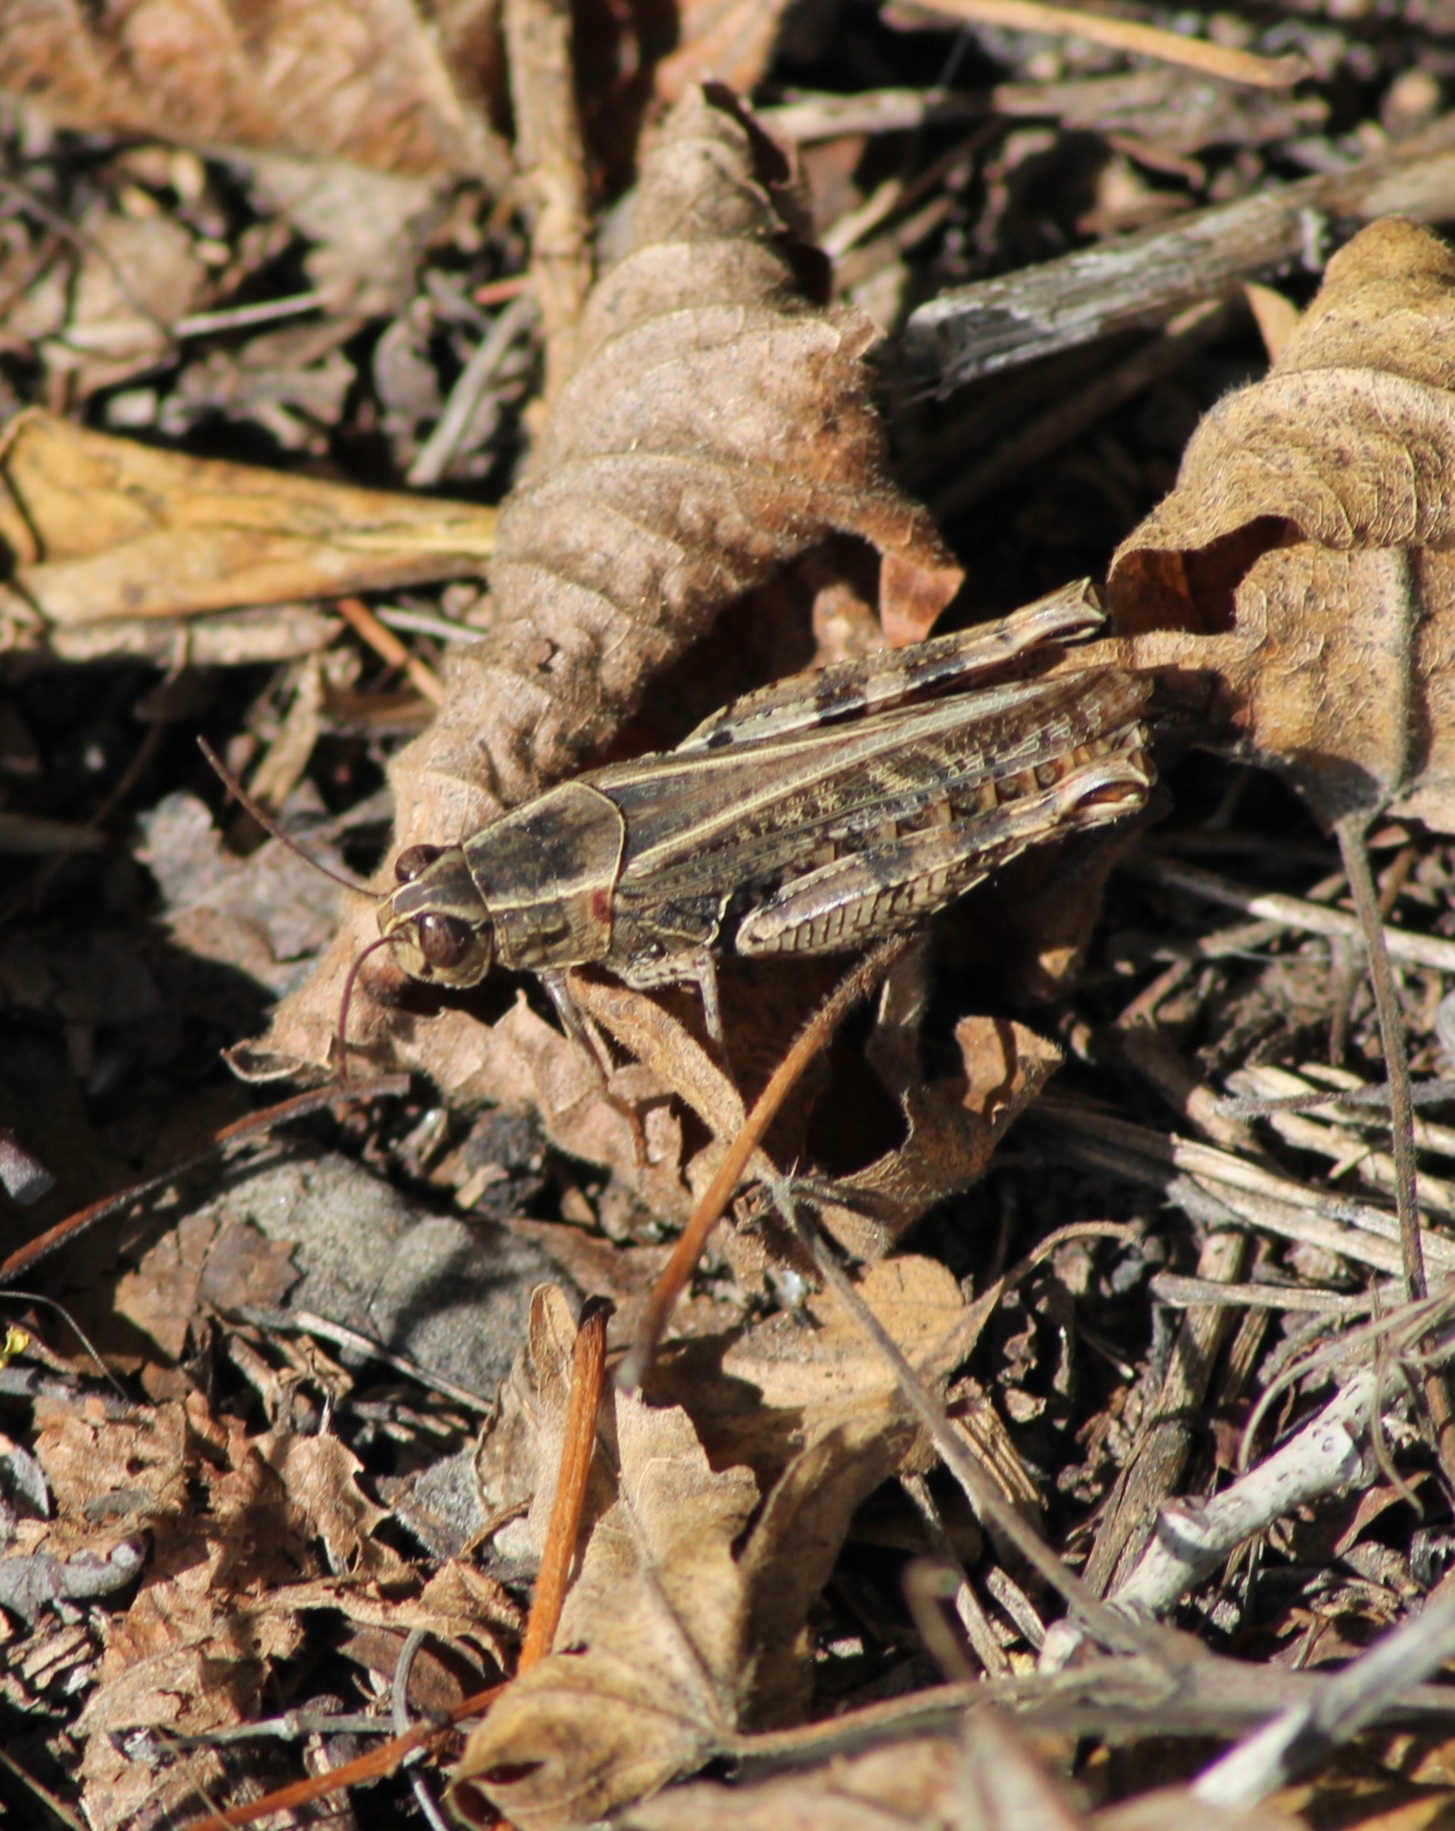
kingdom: Animalia
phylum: Arthropoda
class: Insecta
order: Orthoptera
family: Acrididae
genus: Calliptamus
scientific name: Calliptamus italicus
